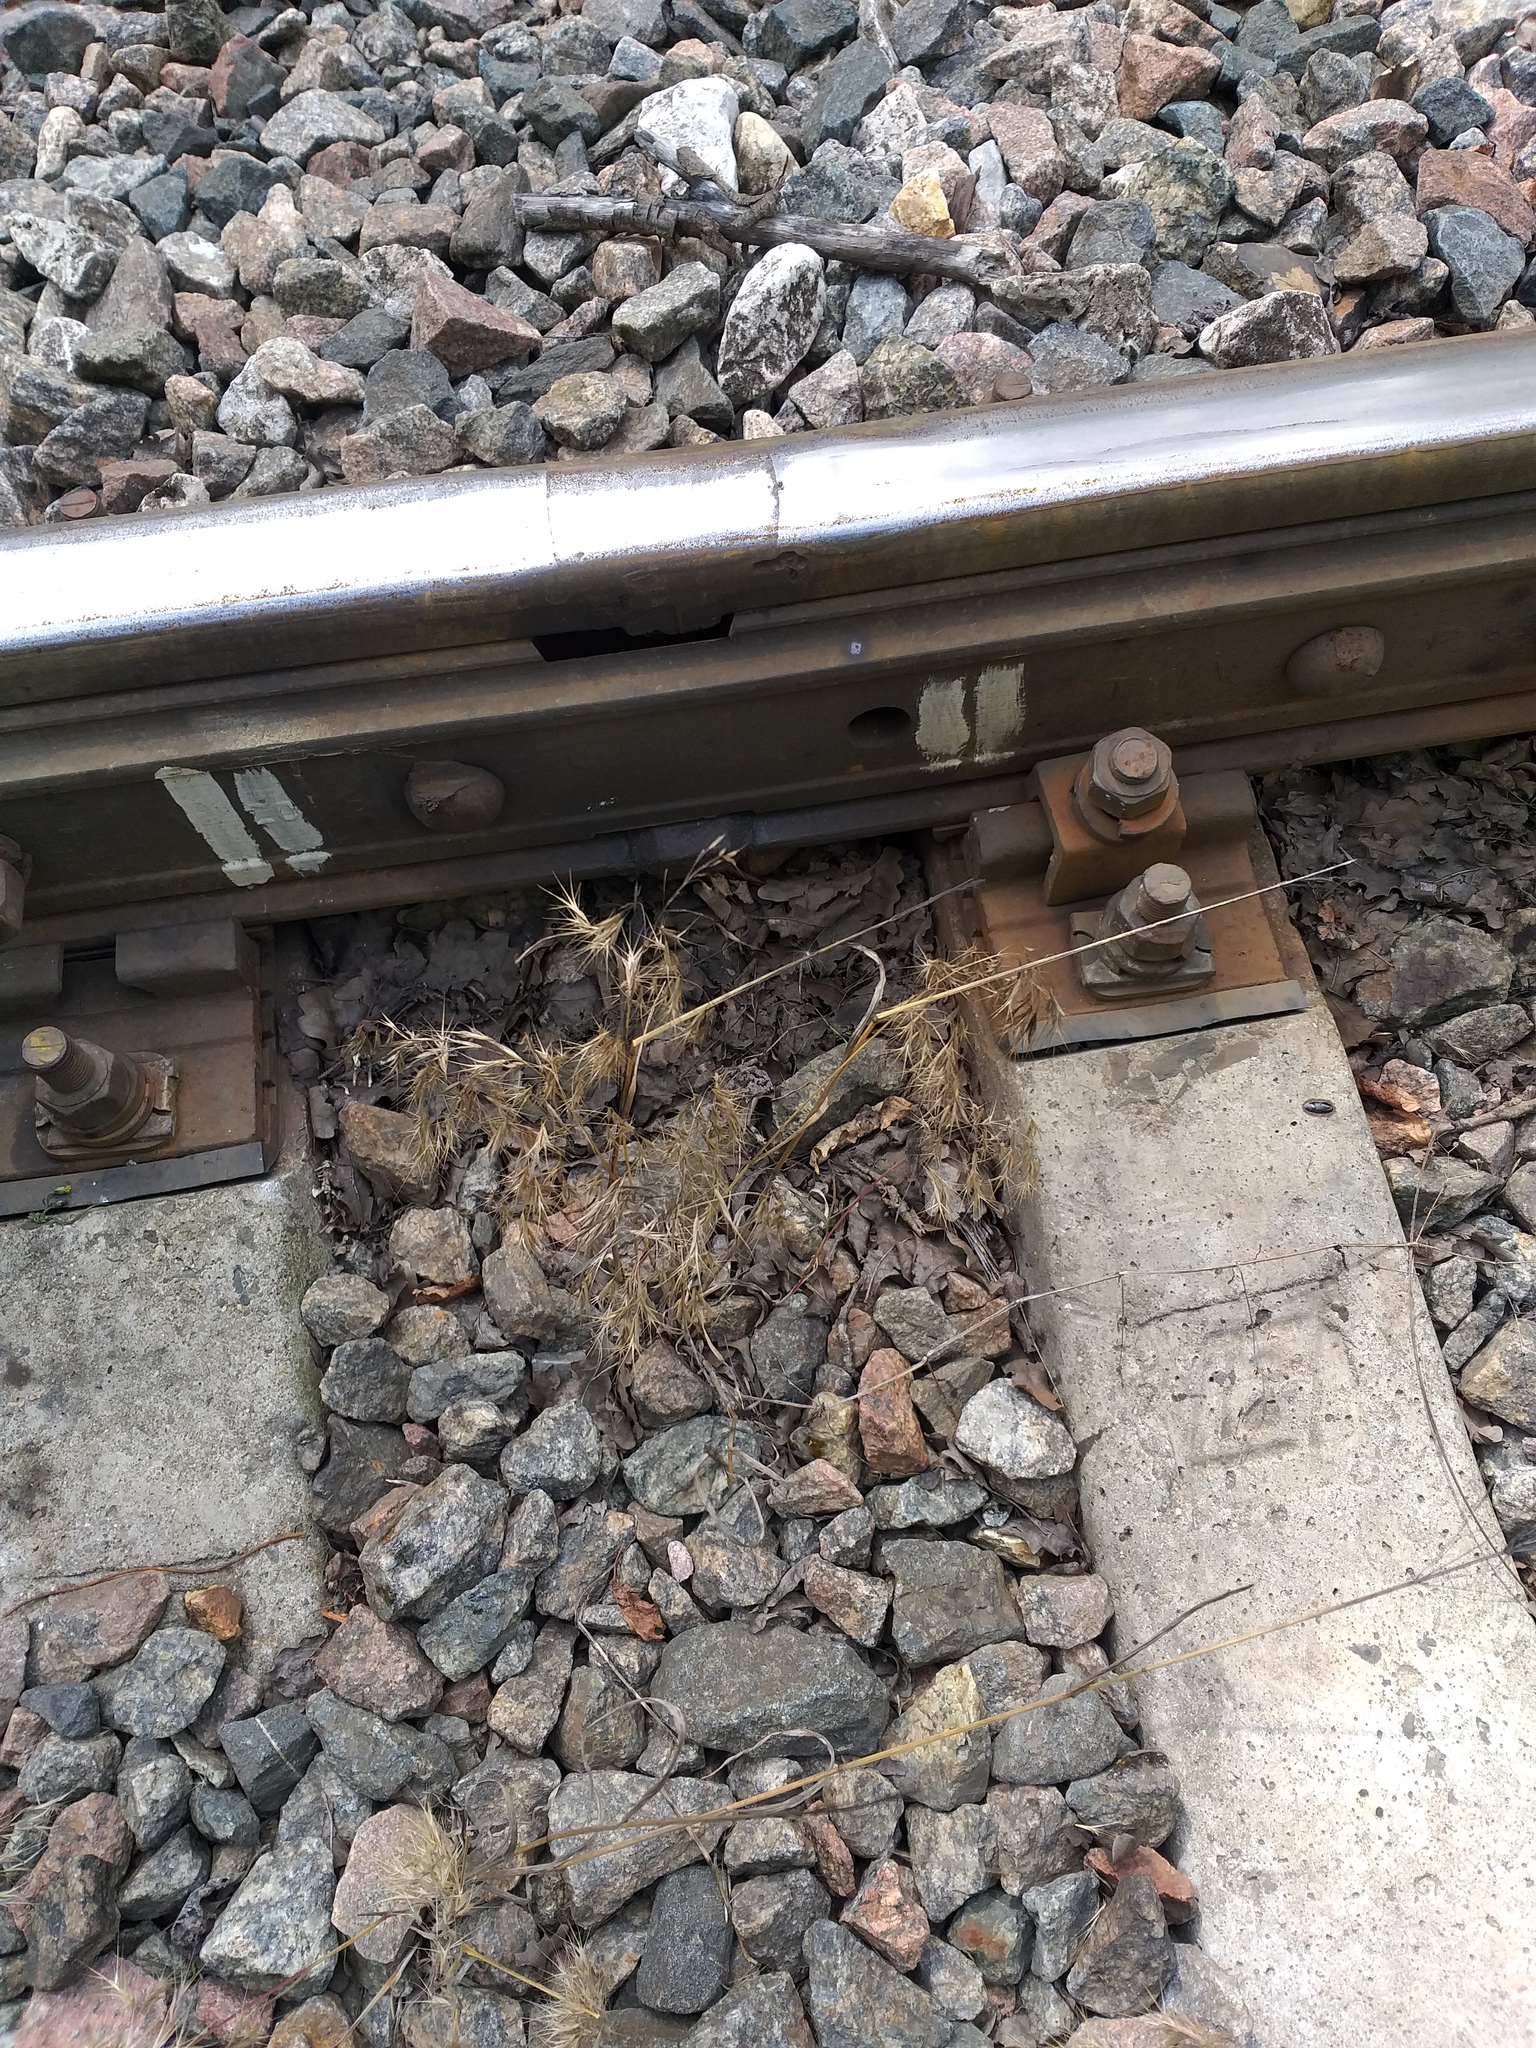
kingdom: Plantae
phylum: Tracheophyta
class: Liliopsida
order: Poales
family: Poaceae
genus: Bromus
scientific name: Bromus tectorum
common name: Cheatgrass
